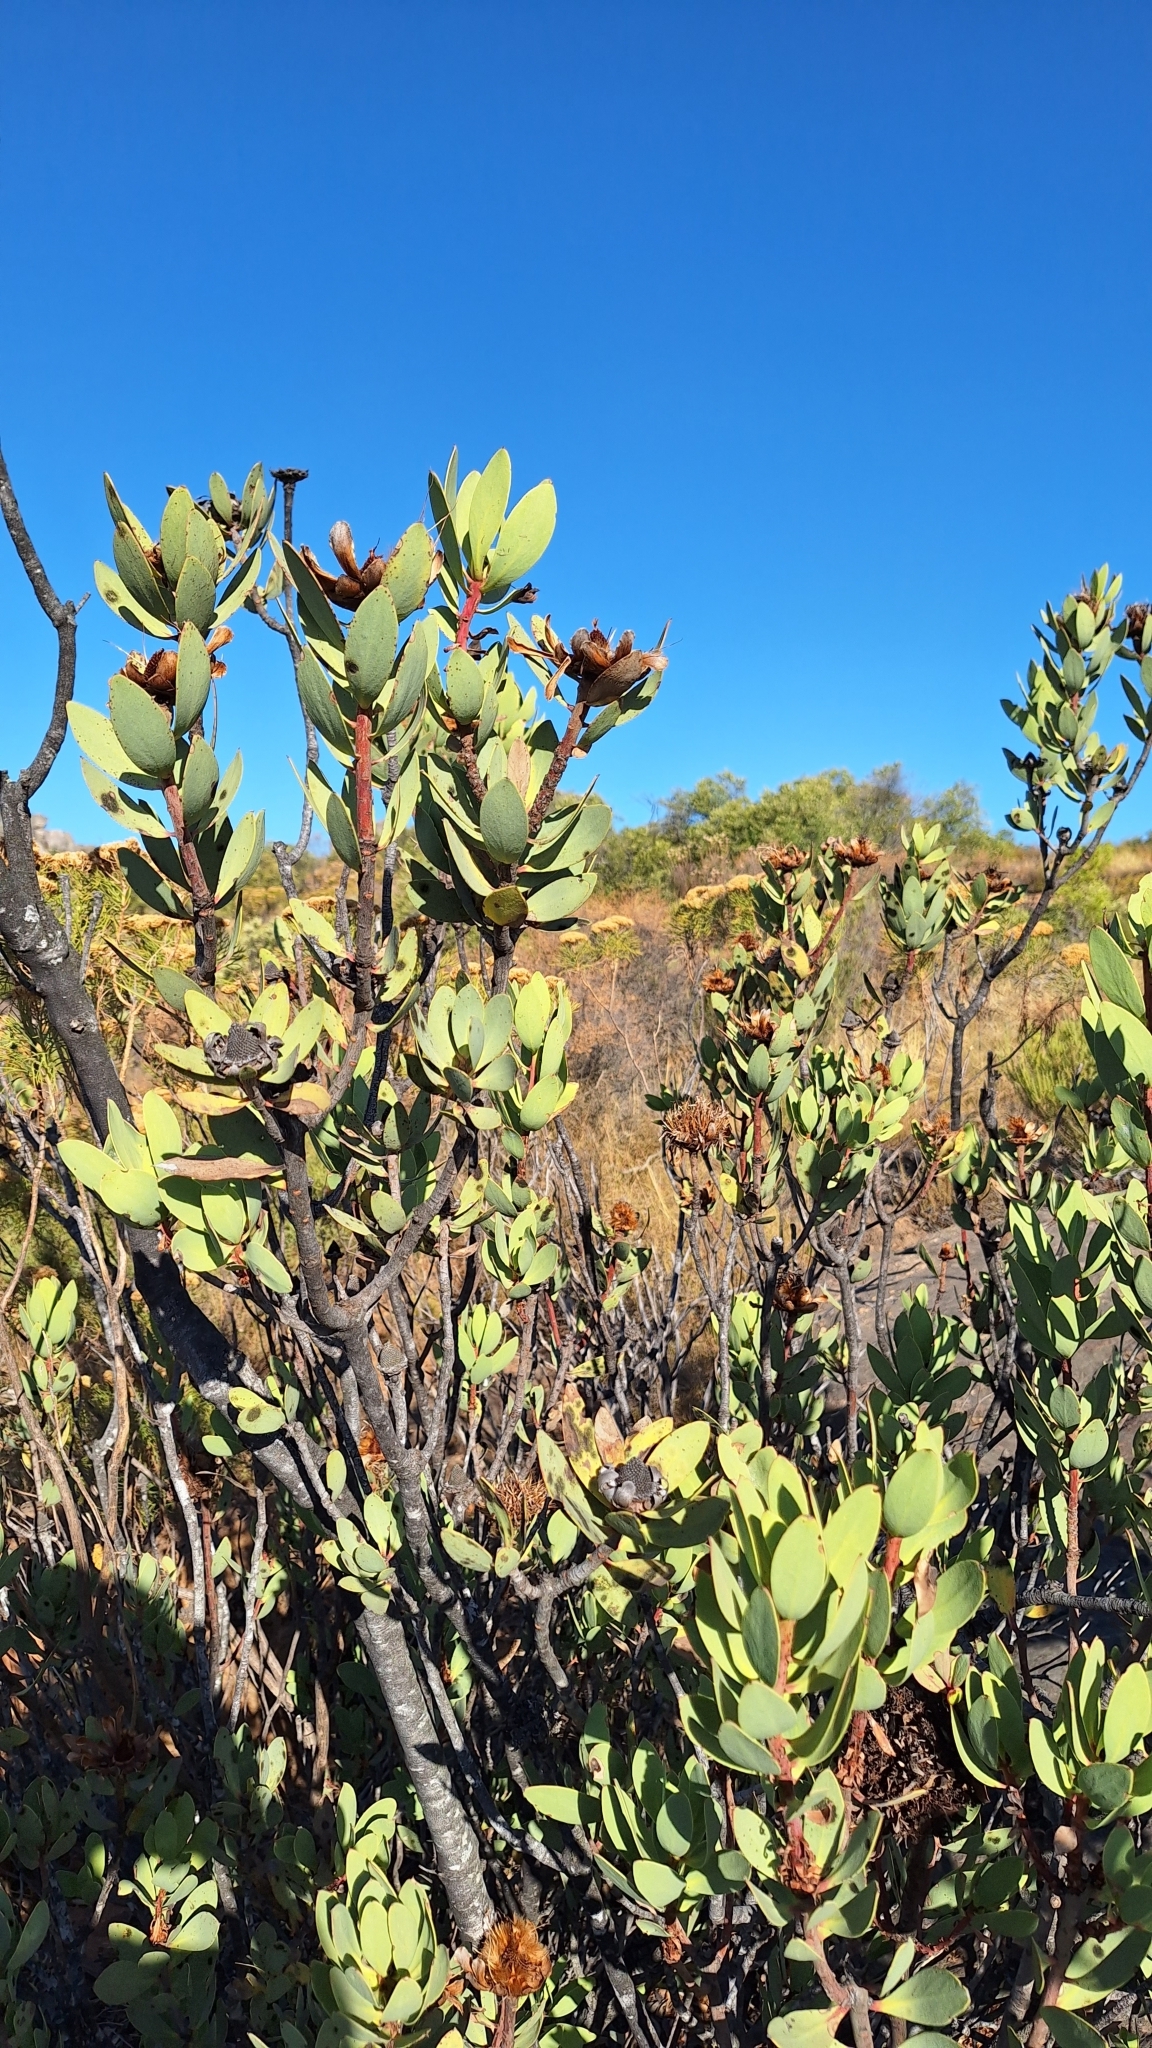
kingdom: Plantae
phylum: Tracheophyta
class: Magnoliopsida
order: Proteales
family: Proteaceae
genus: Protea
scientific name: Protea glabra
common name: Chestnut sugarbush
